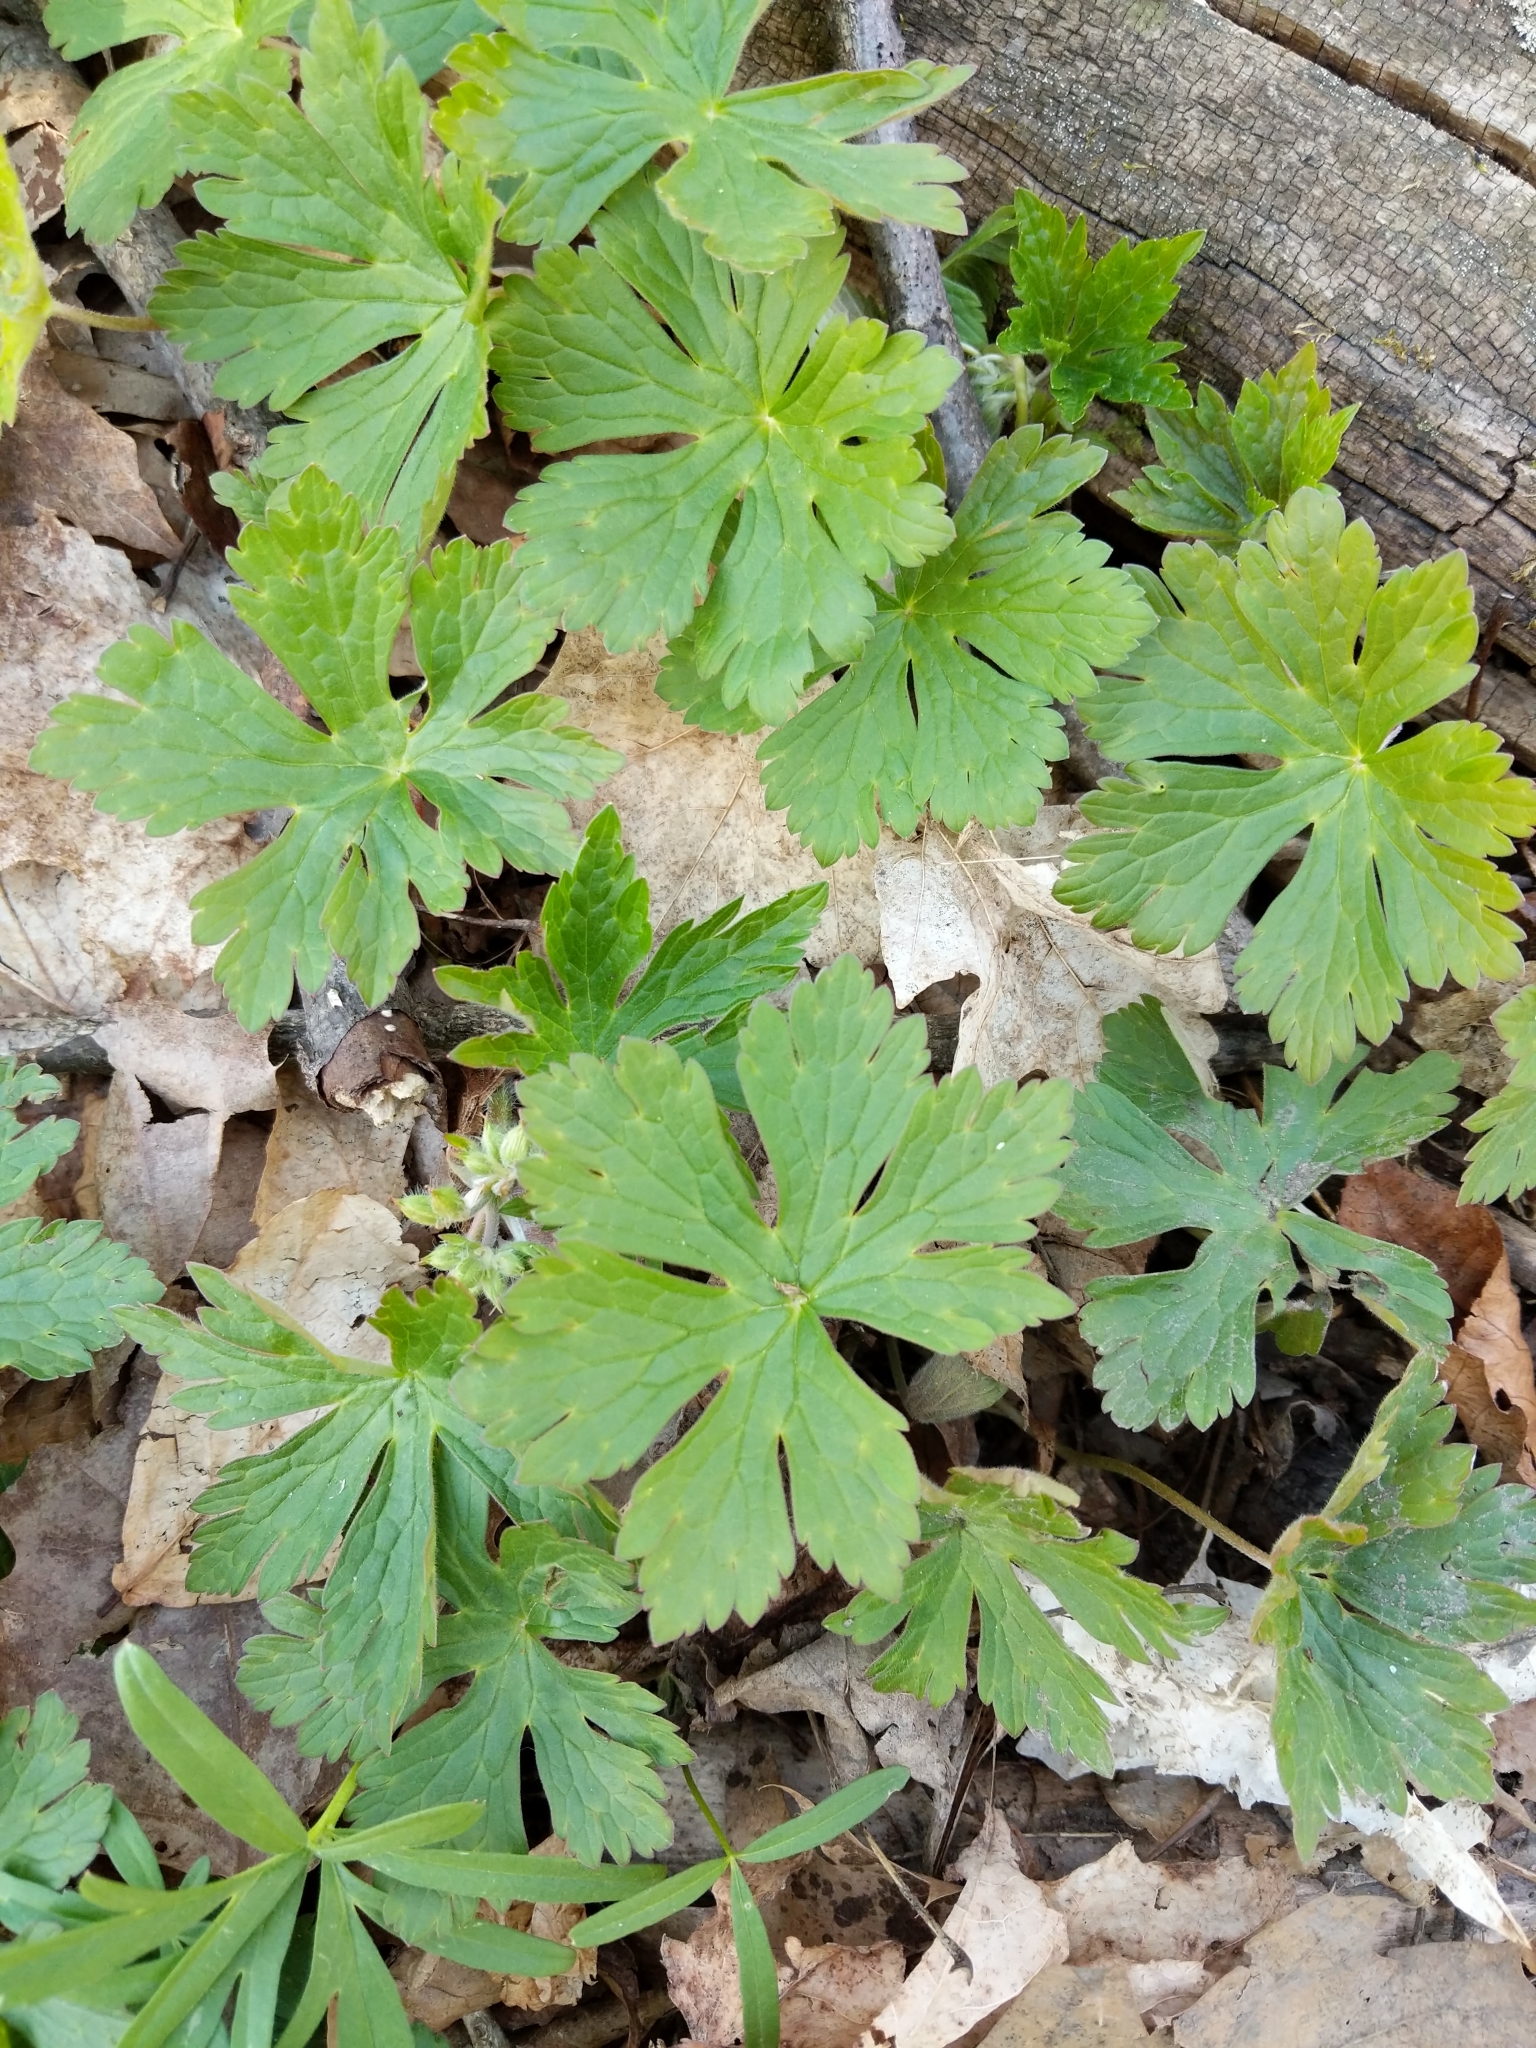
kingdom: Plantae
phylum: Tracheophyta
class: Magnoliopsida
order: Geraniales
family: Geraniaceae
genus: Geranium
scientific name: Geranium maculatum
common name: Spotted geranium
